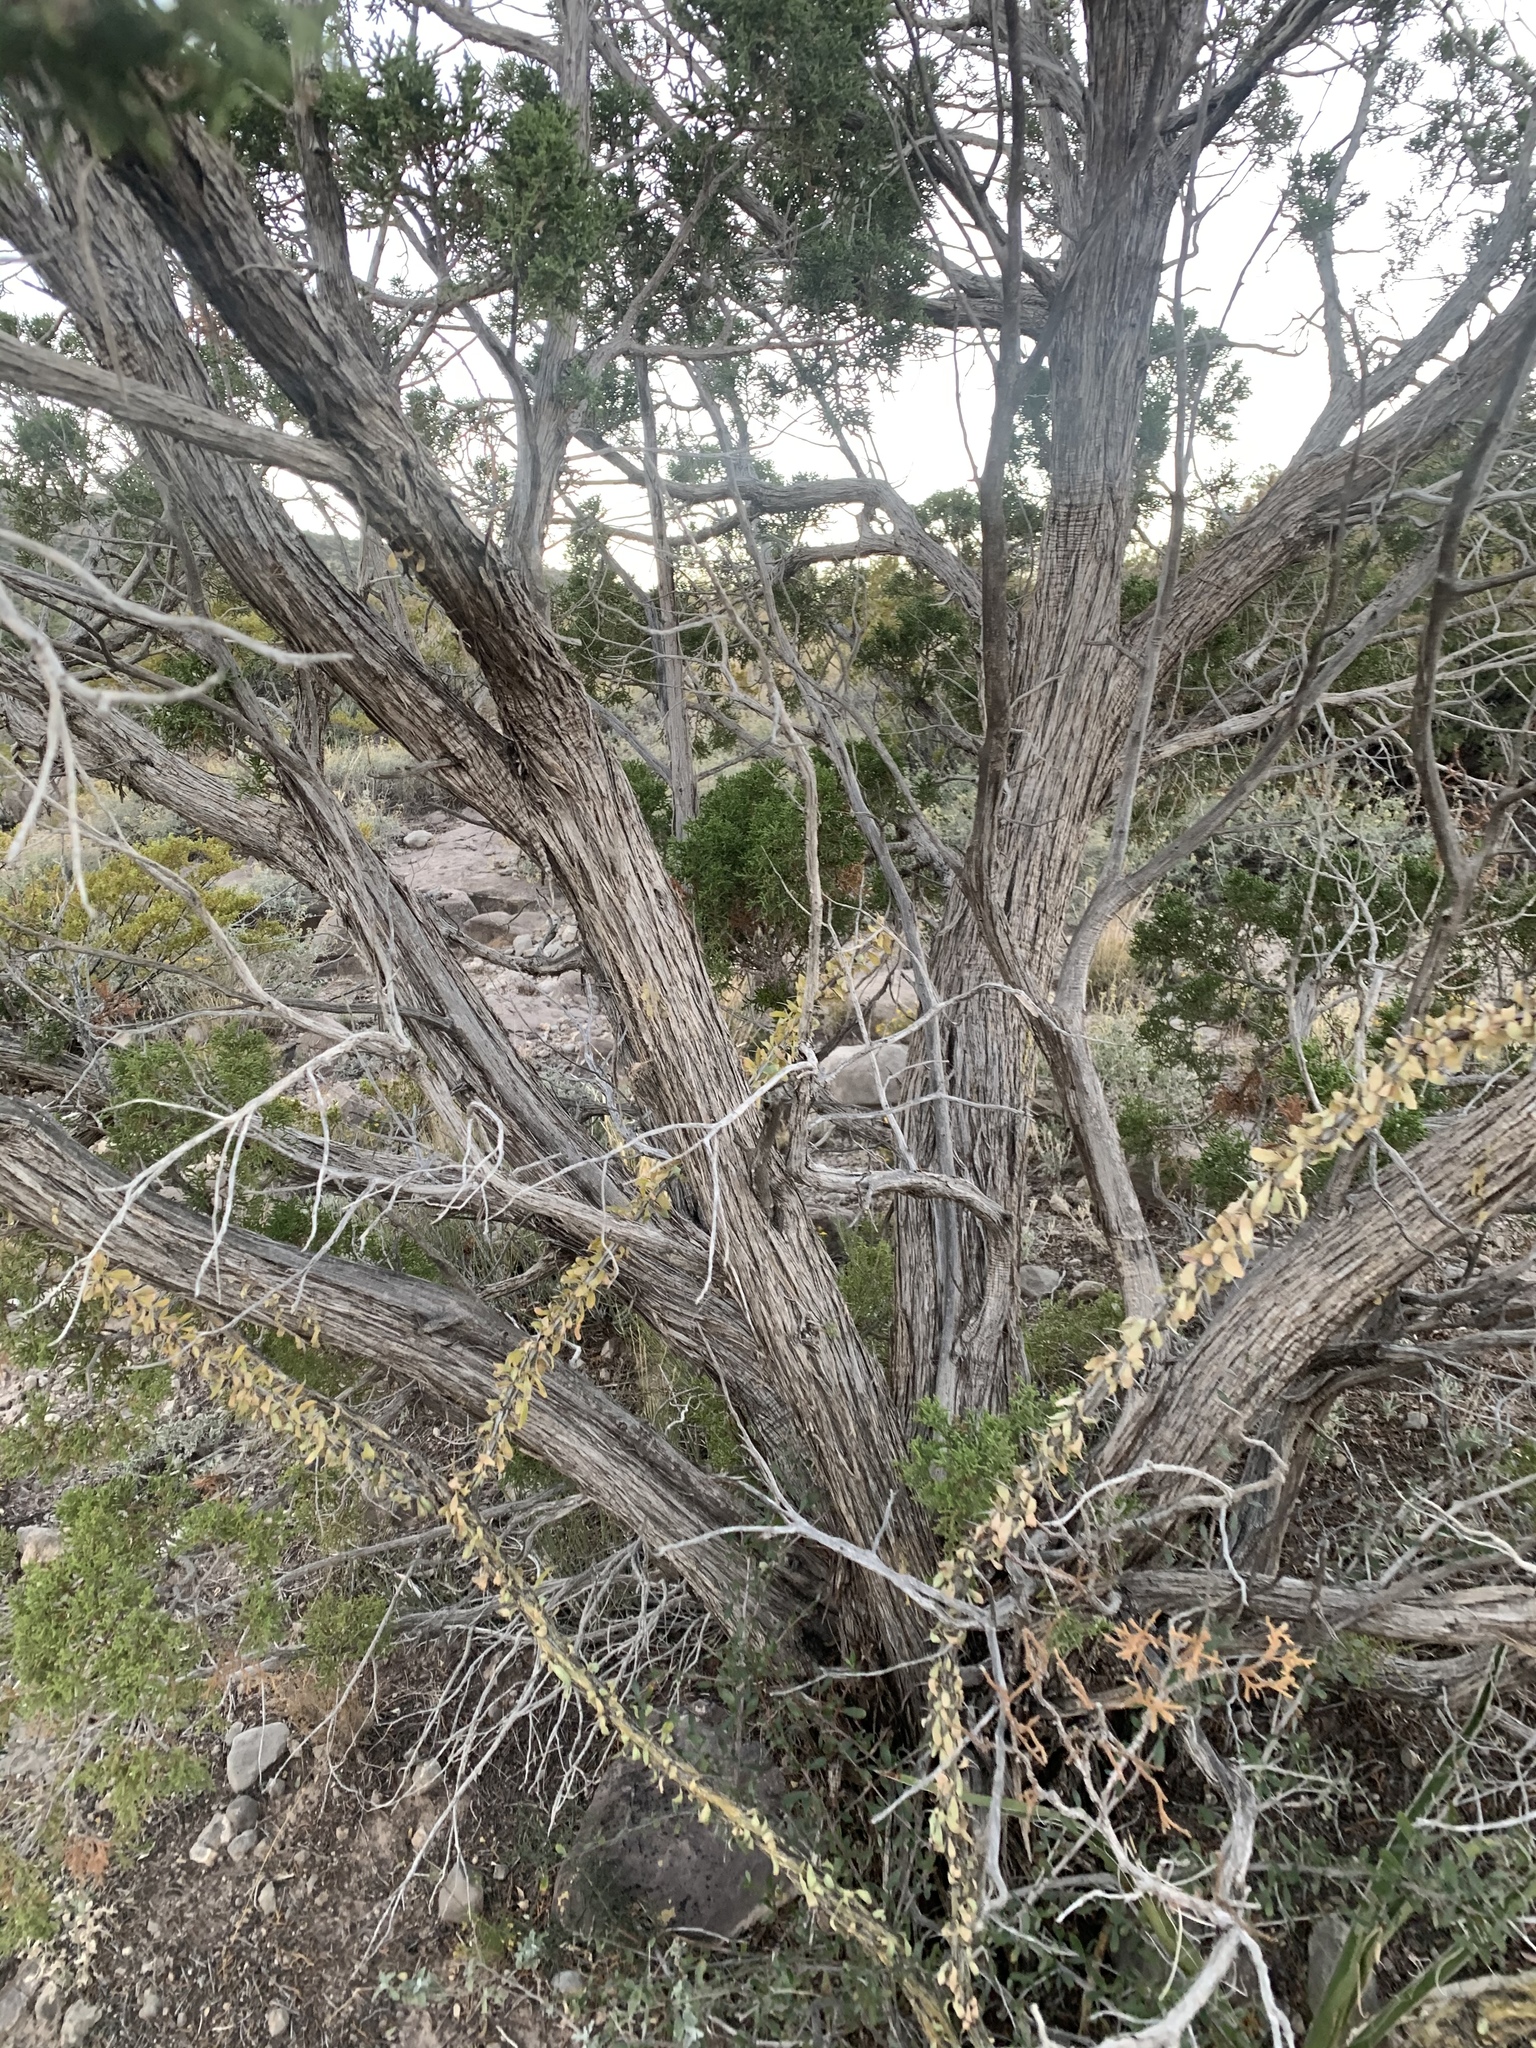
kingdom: Plantae
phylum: Tracheophyta
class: Pinopsida
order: Pinales
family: Cupressaceae
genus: Juniperus
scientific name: Juniperus monosperma
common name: One-seed juniper
